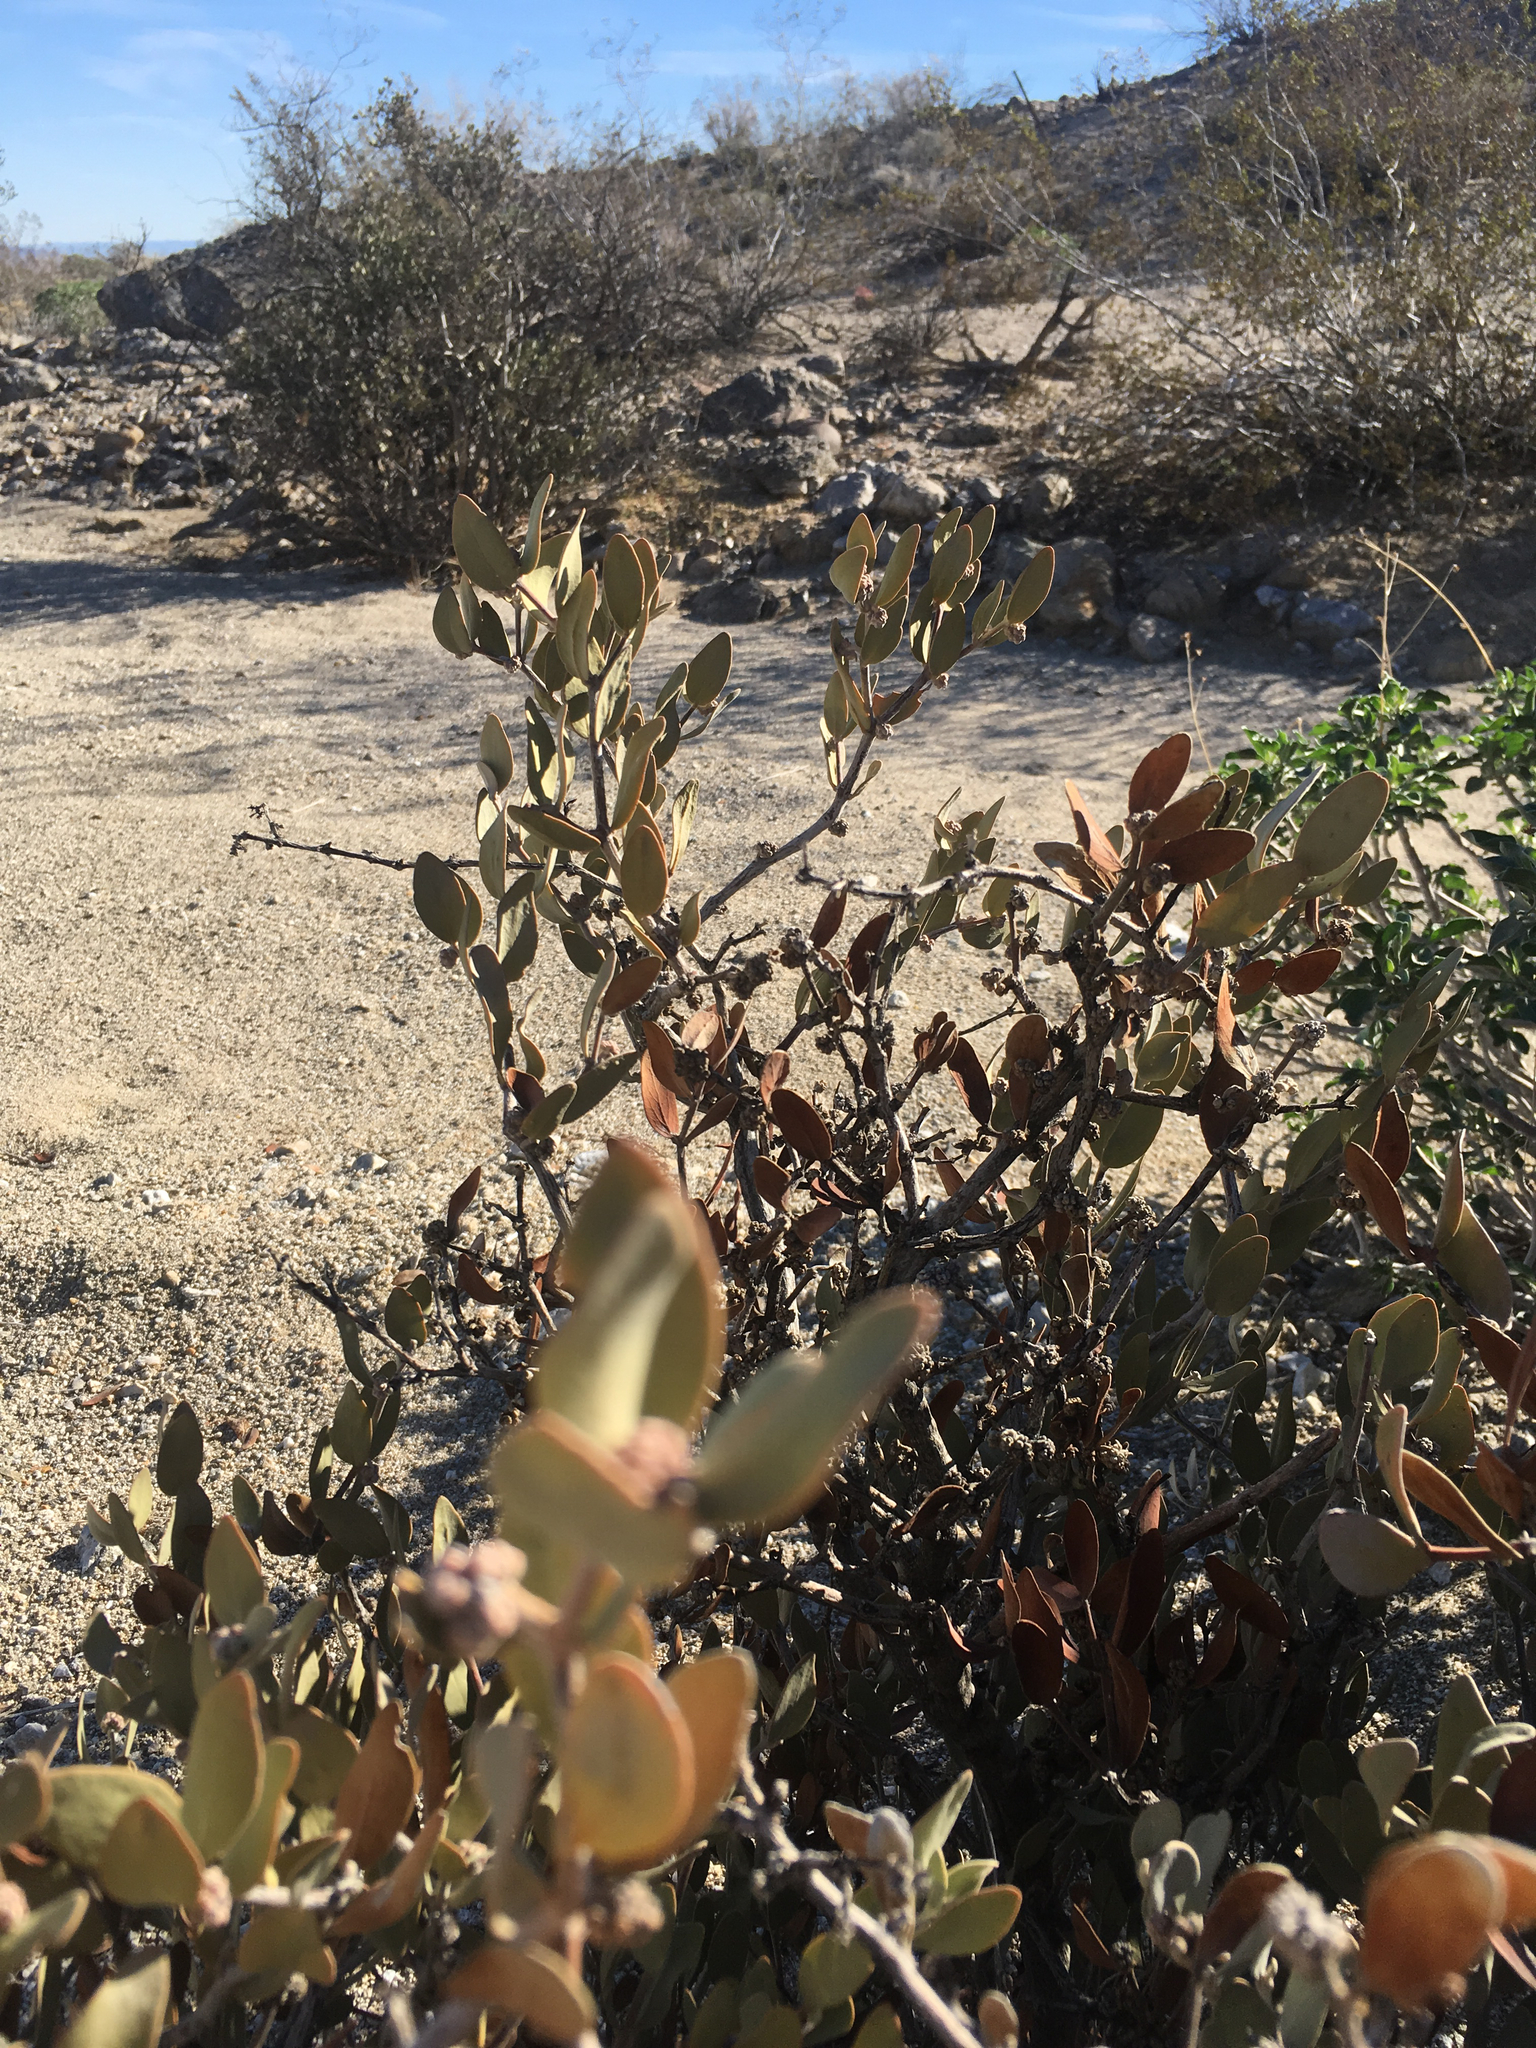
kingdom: Plantae
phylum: Tracheophyta
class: Magnoliopsida
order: Caryophyllales
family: Simmondsiaceae
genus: Simmondsia
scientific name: Simmondsia chinensis
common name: Jojoba
